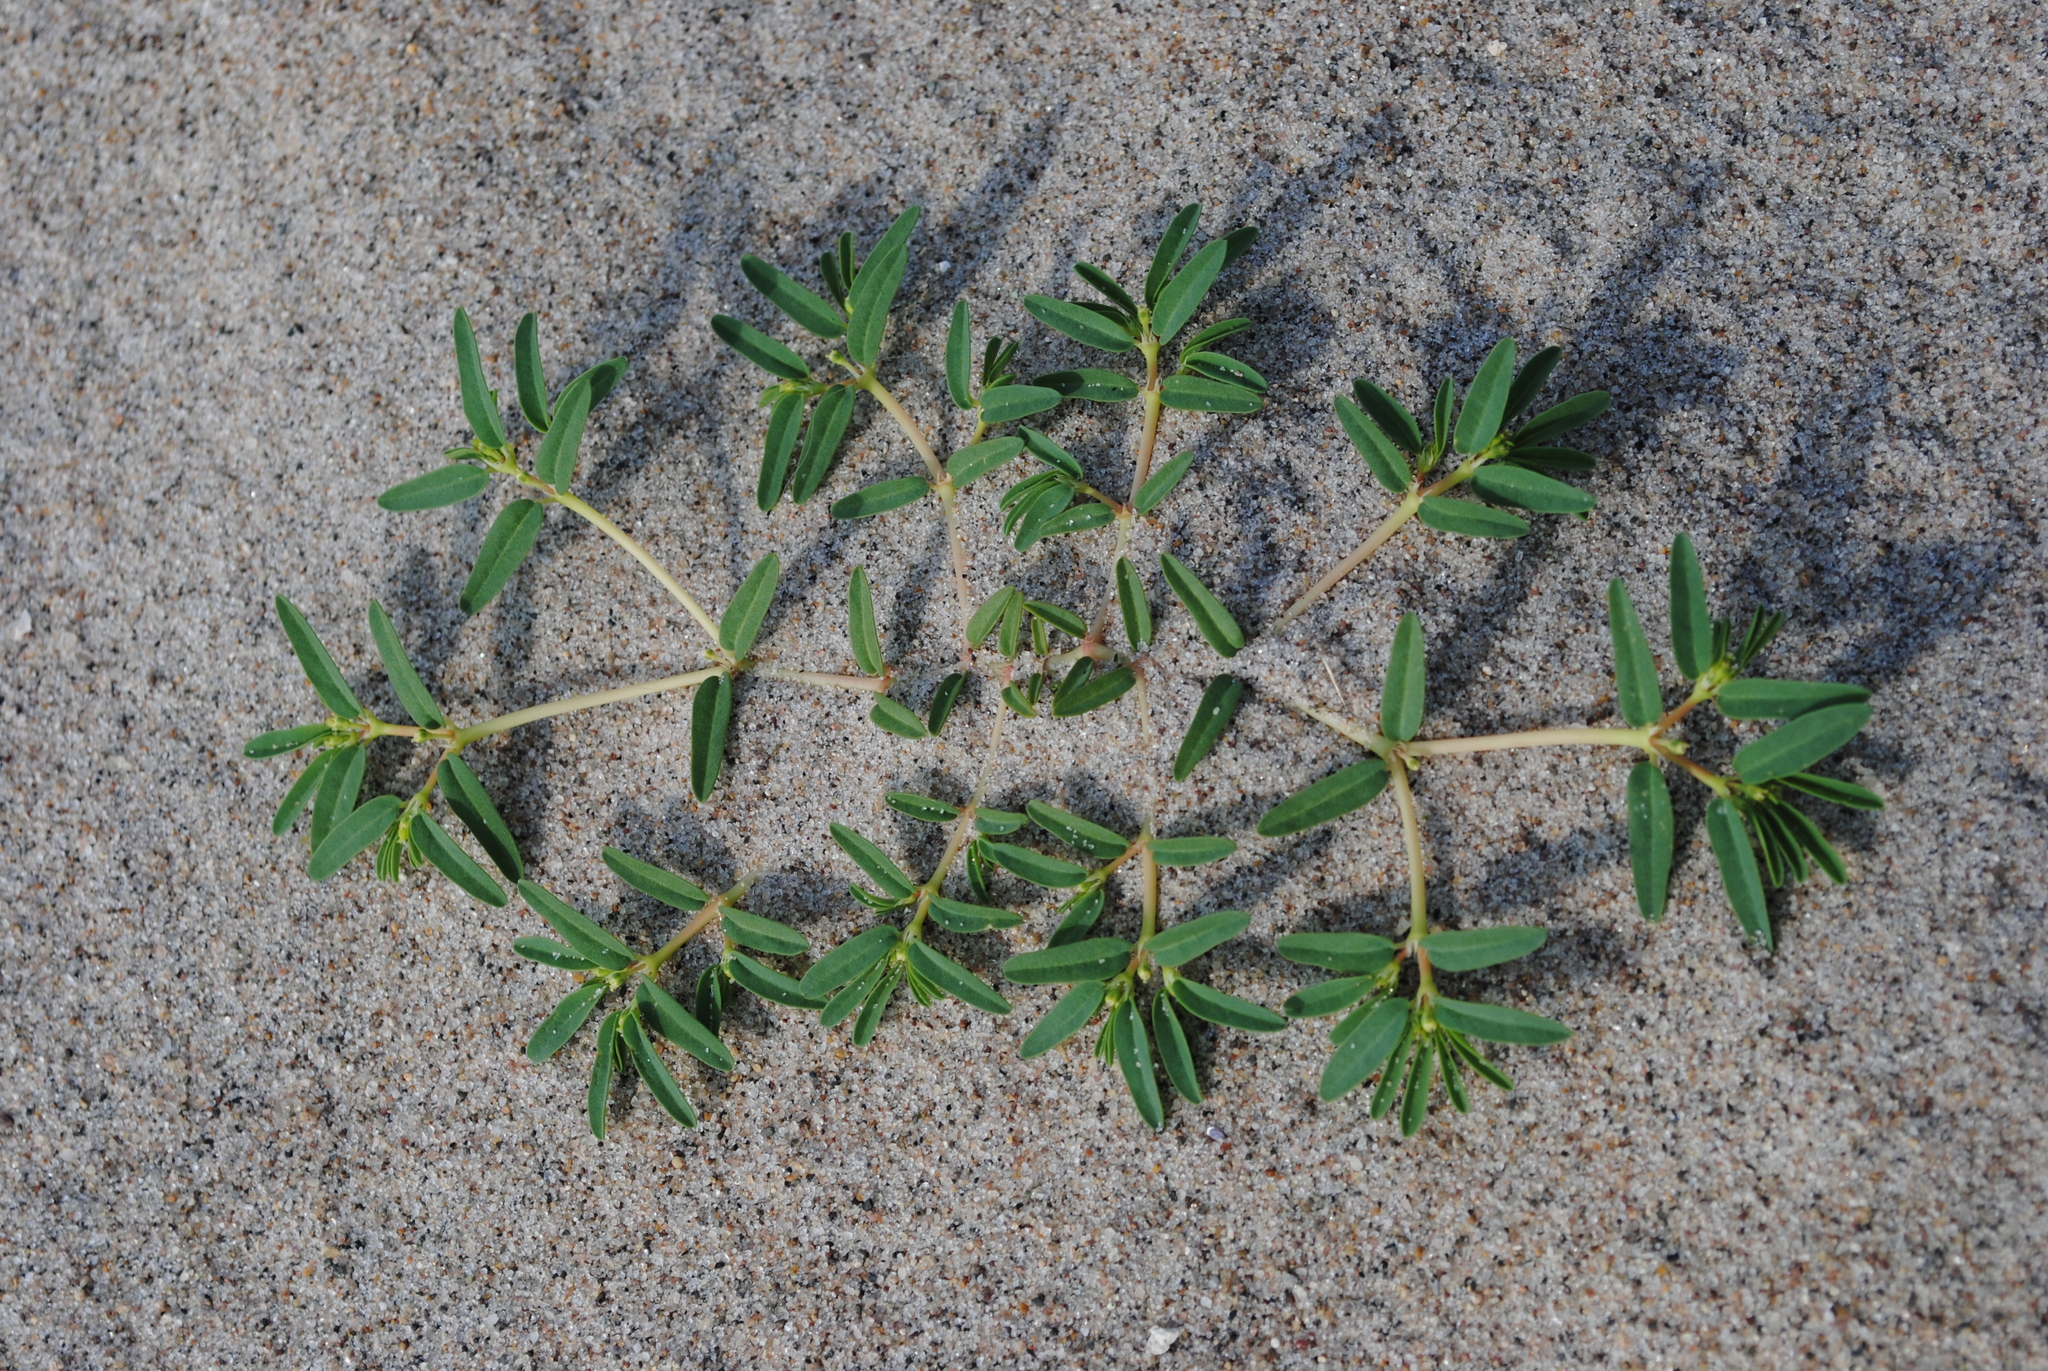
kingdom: Plantae
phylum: Tracheophyta
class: Magnoliopsida
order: Malpighiales
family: Euphorbiaceae
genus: Euphorbia
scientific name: Euphorbia polygonifolia
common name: Knotweed spurge
